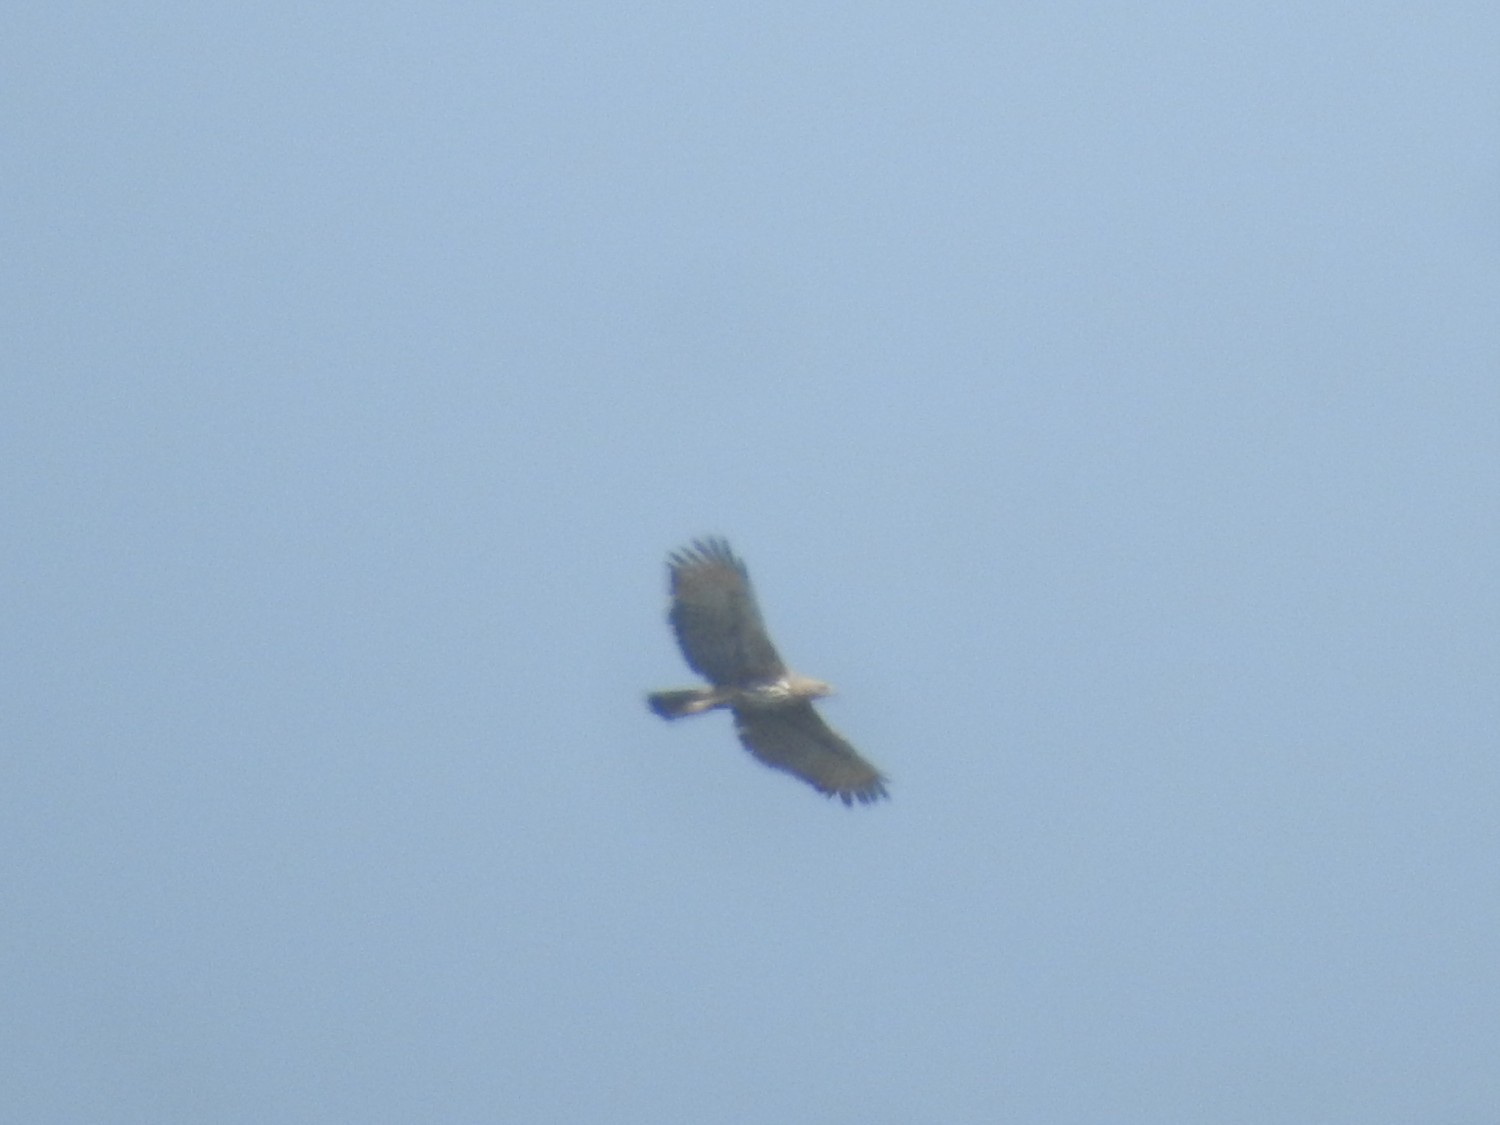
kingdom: Animalia
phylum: Chordata
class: Aves
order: Accipitriformes
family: Accipitridae
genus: Pernis
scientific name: Pernis ptilorhynchus
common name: Crested honey buzzard
